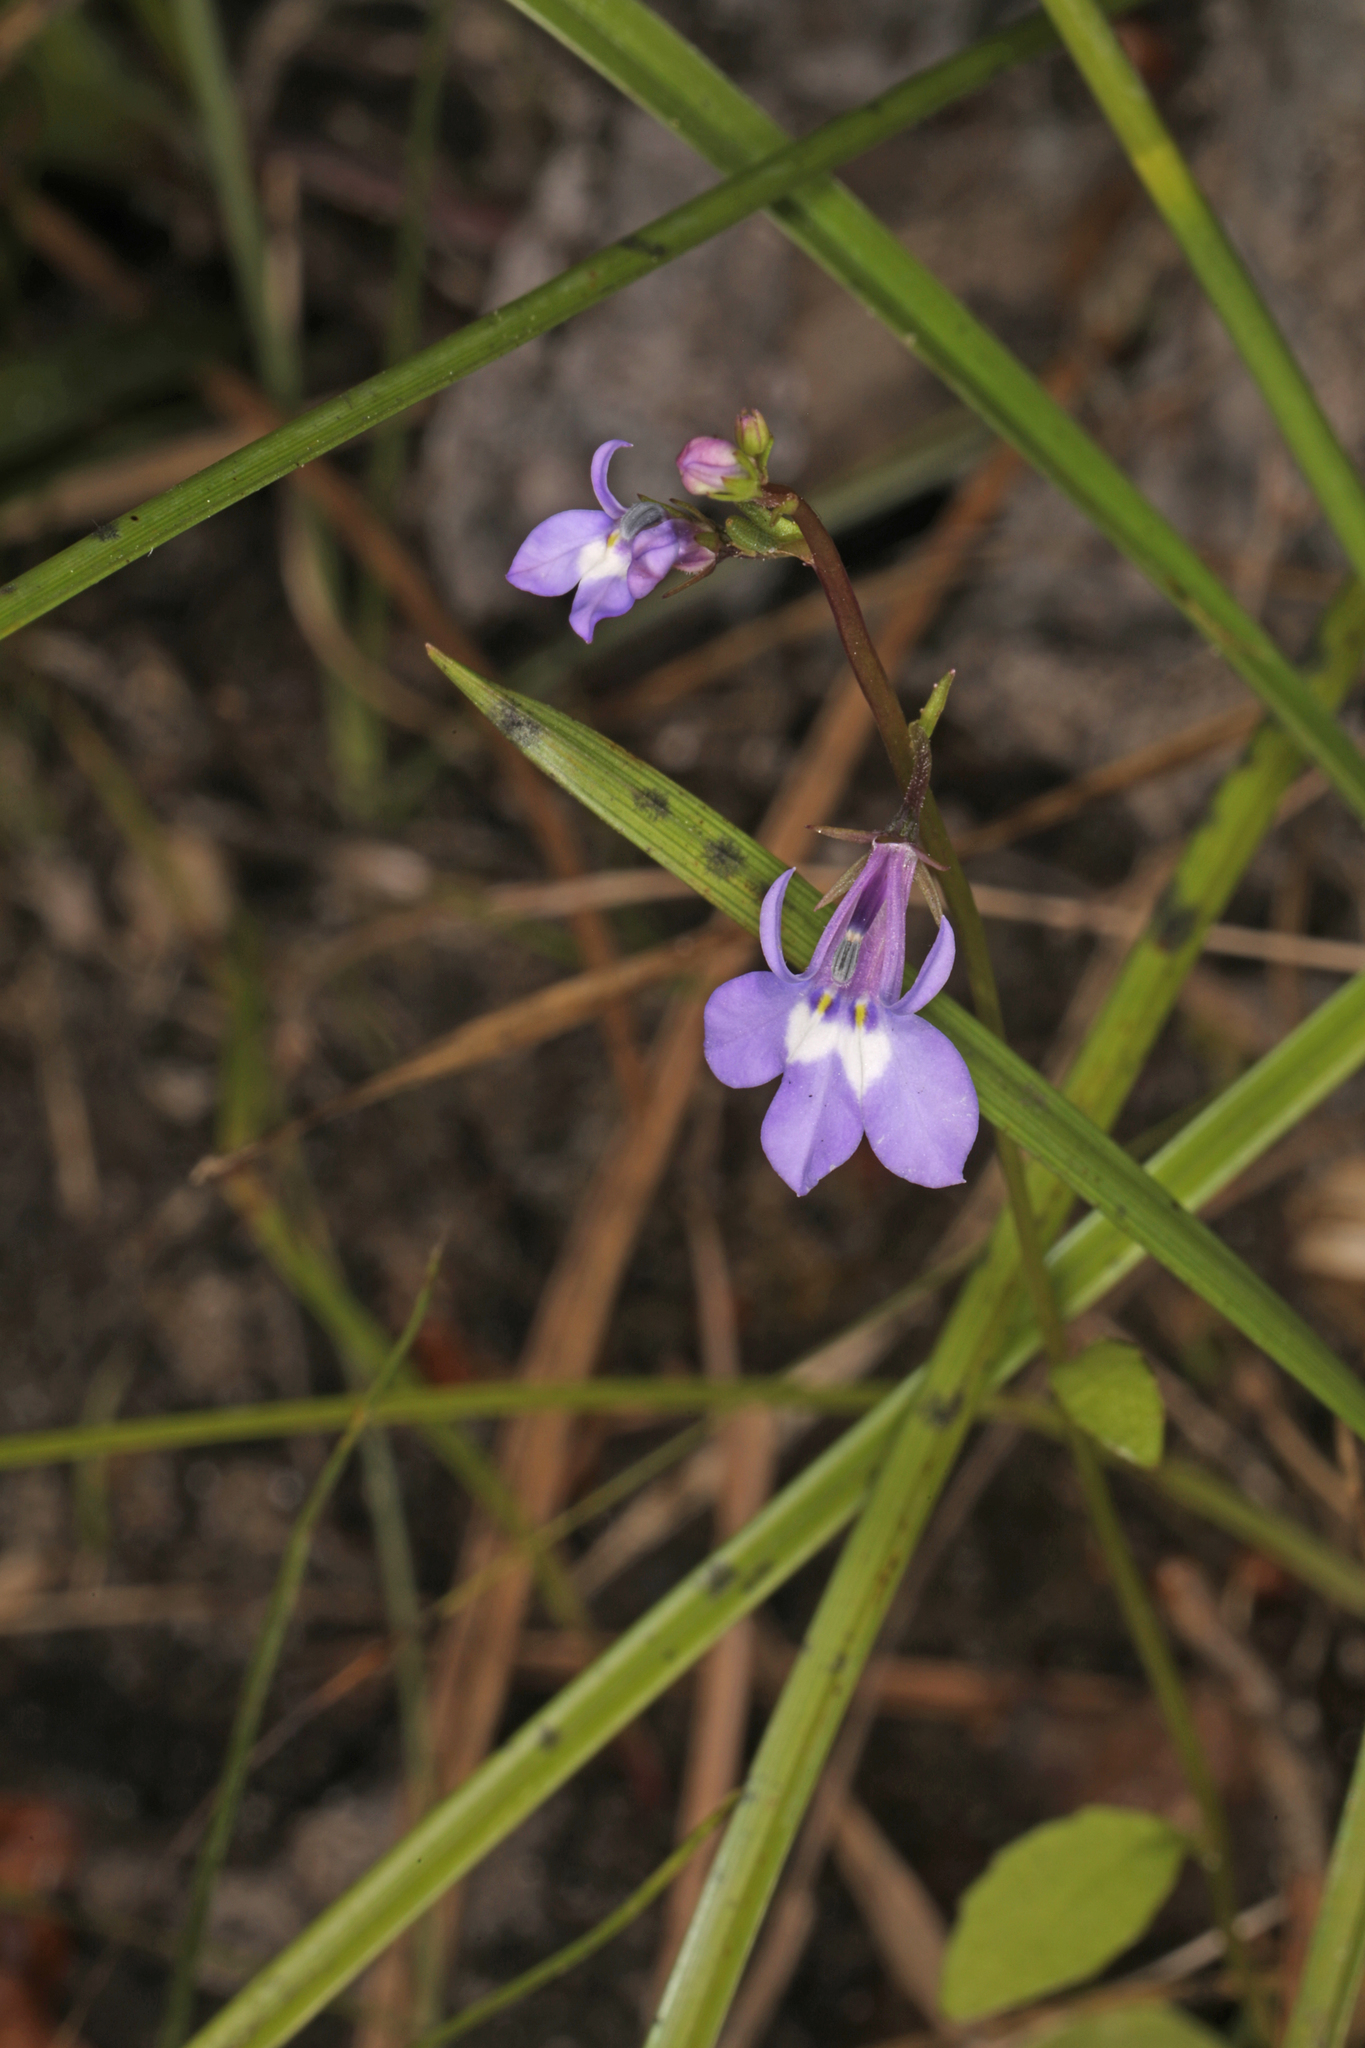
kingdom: Plantae
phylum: Tracheophyta
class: Magnoliopsida
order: Asterales
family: Campanulaceae
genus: Lobelia
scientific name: Lobelia feayana
